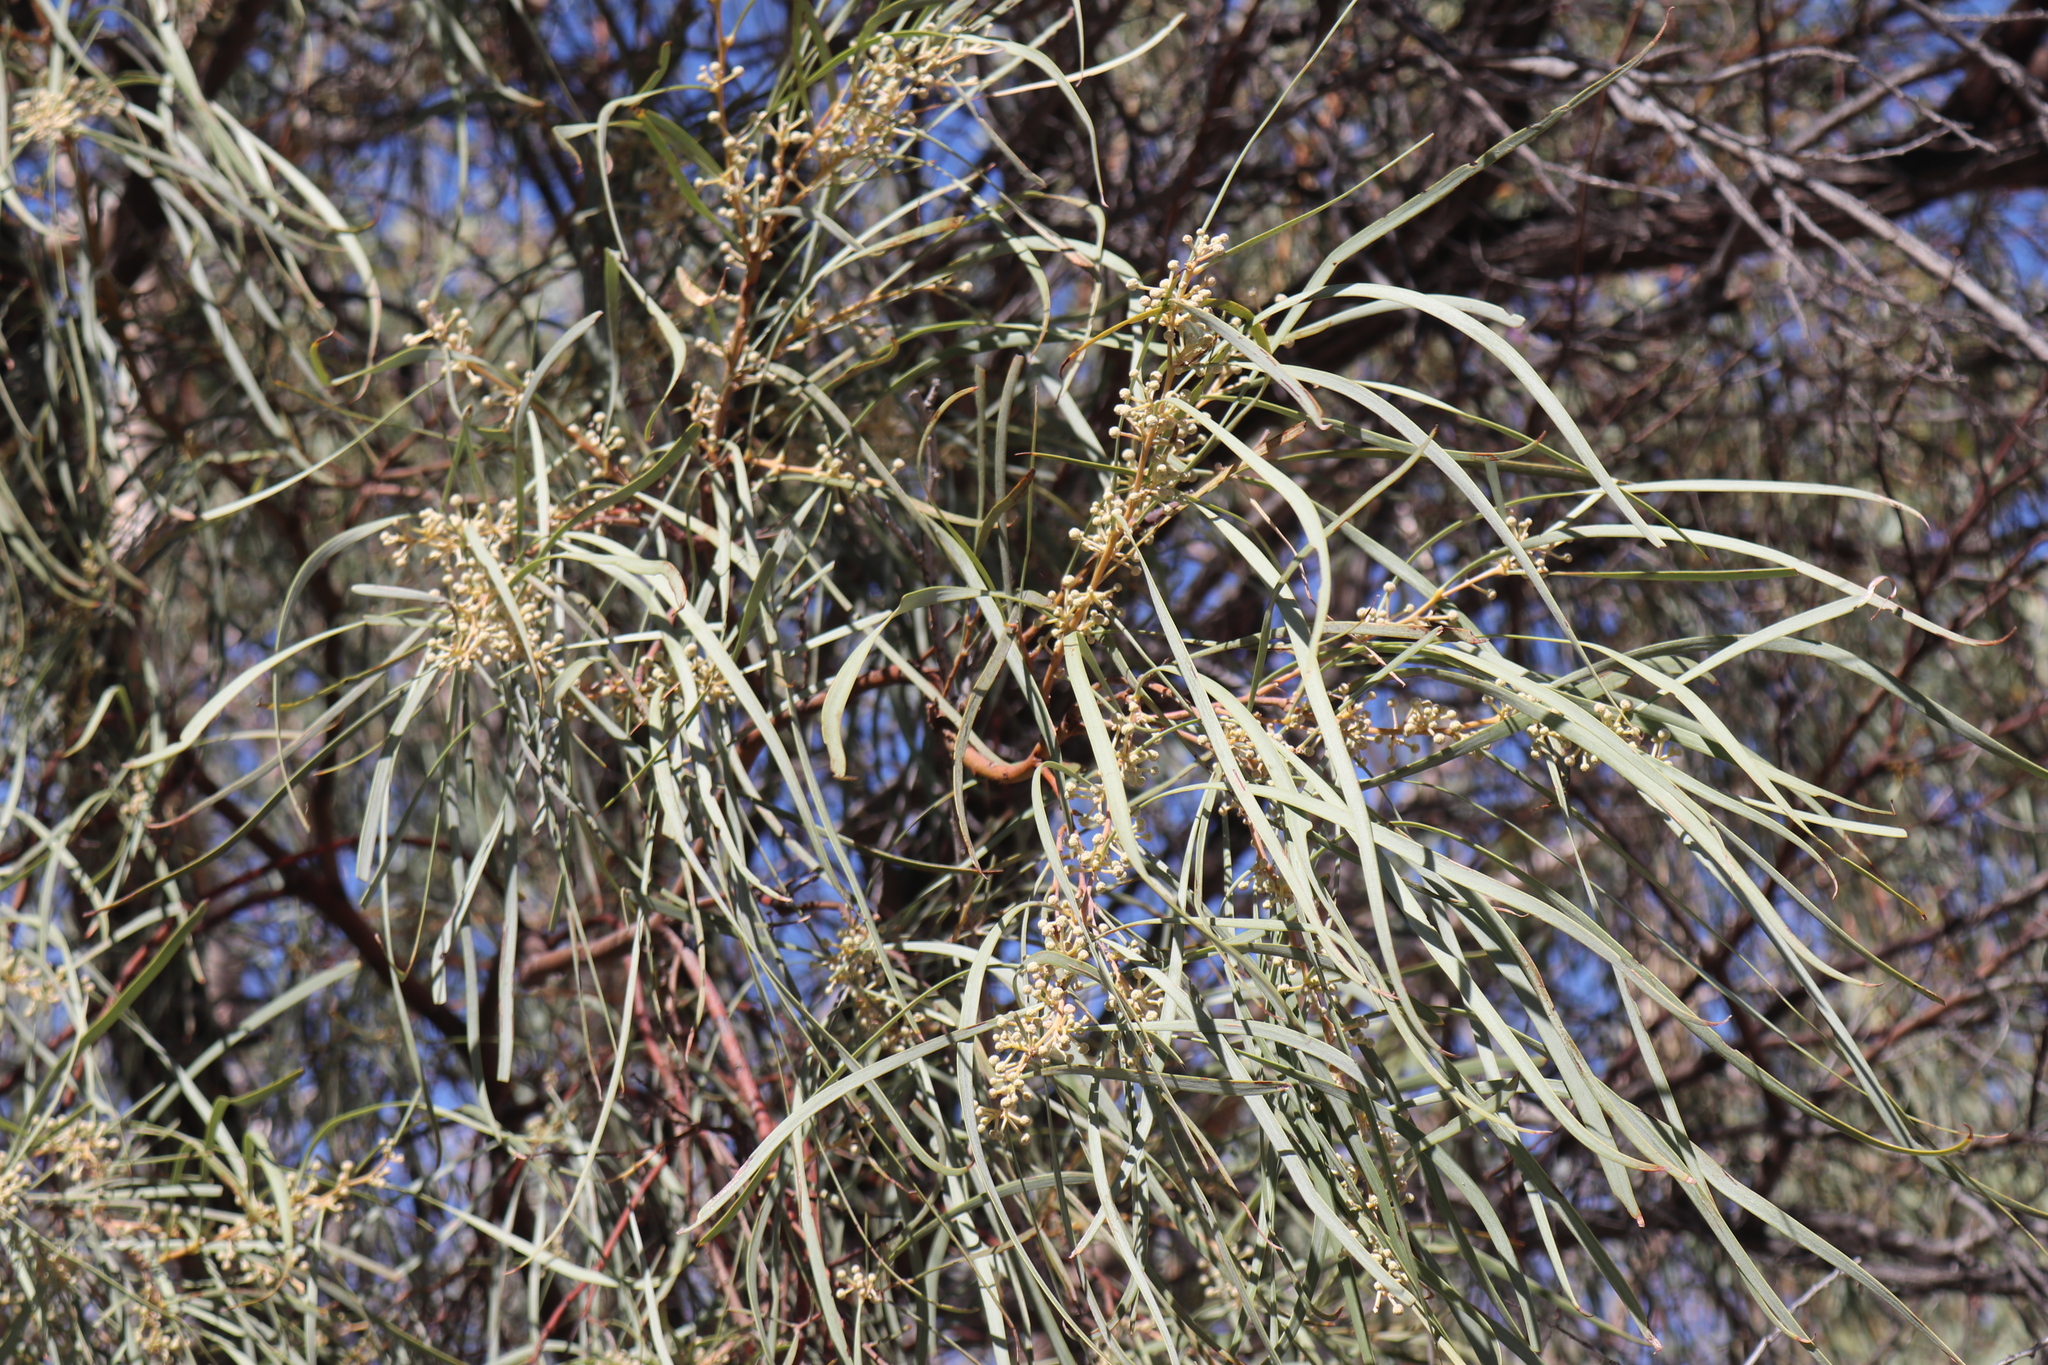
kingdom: Plantae
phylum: Tracheophyta
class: Magnoliopsida
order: Fabales
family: Fabaceae
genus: Acacia
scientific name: Acacia stenophylla
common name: River cooba
